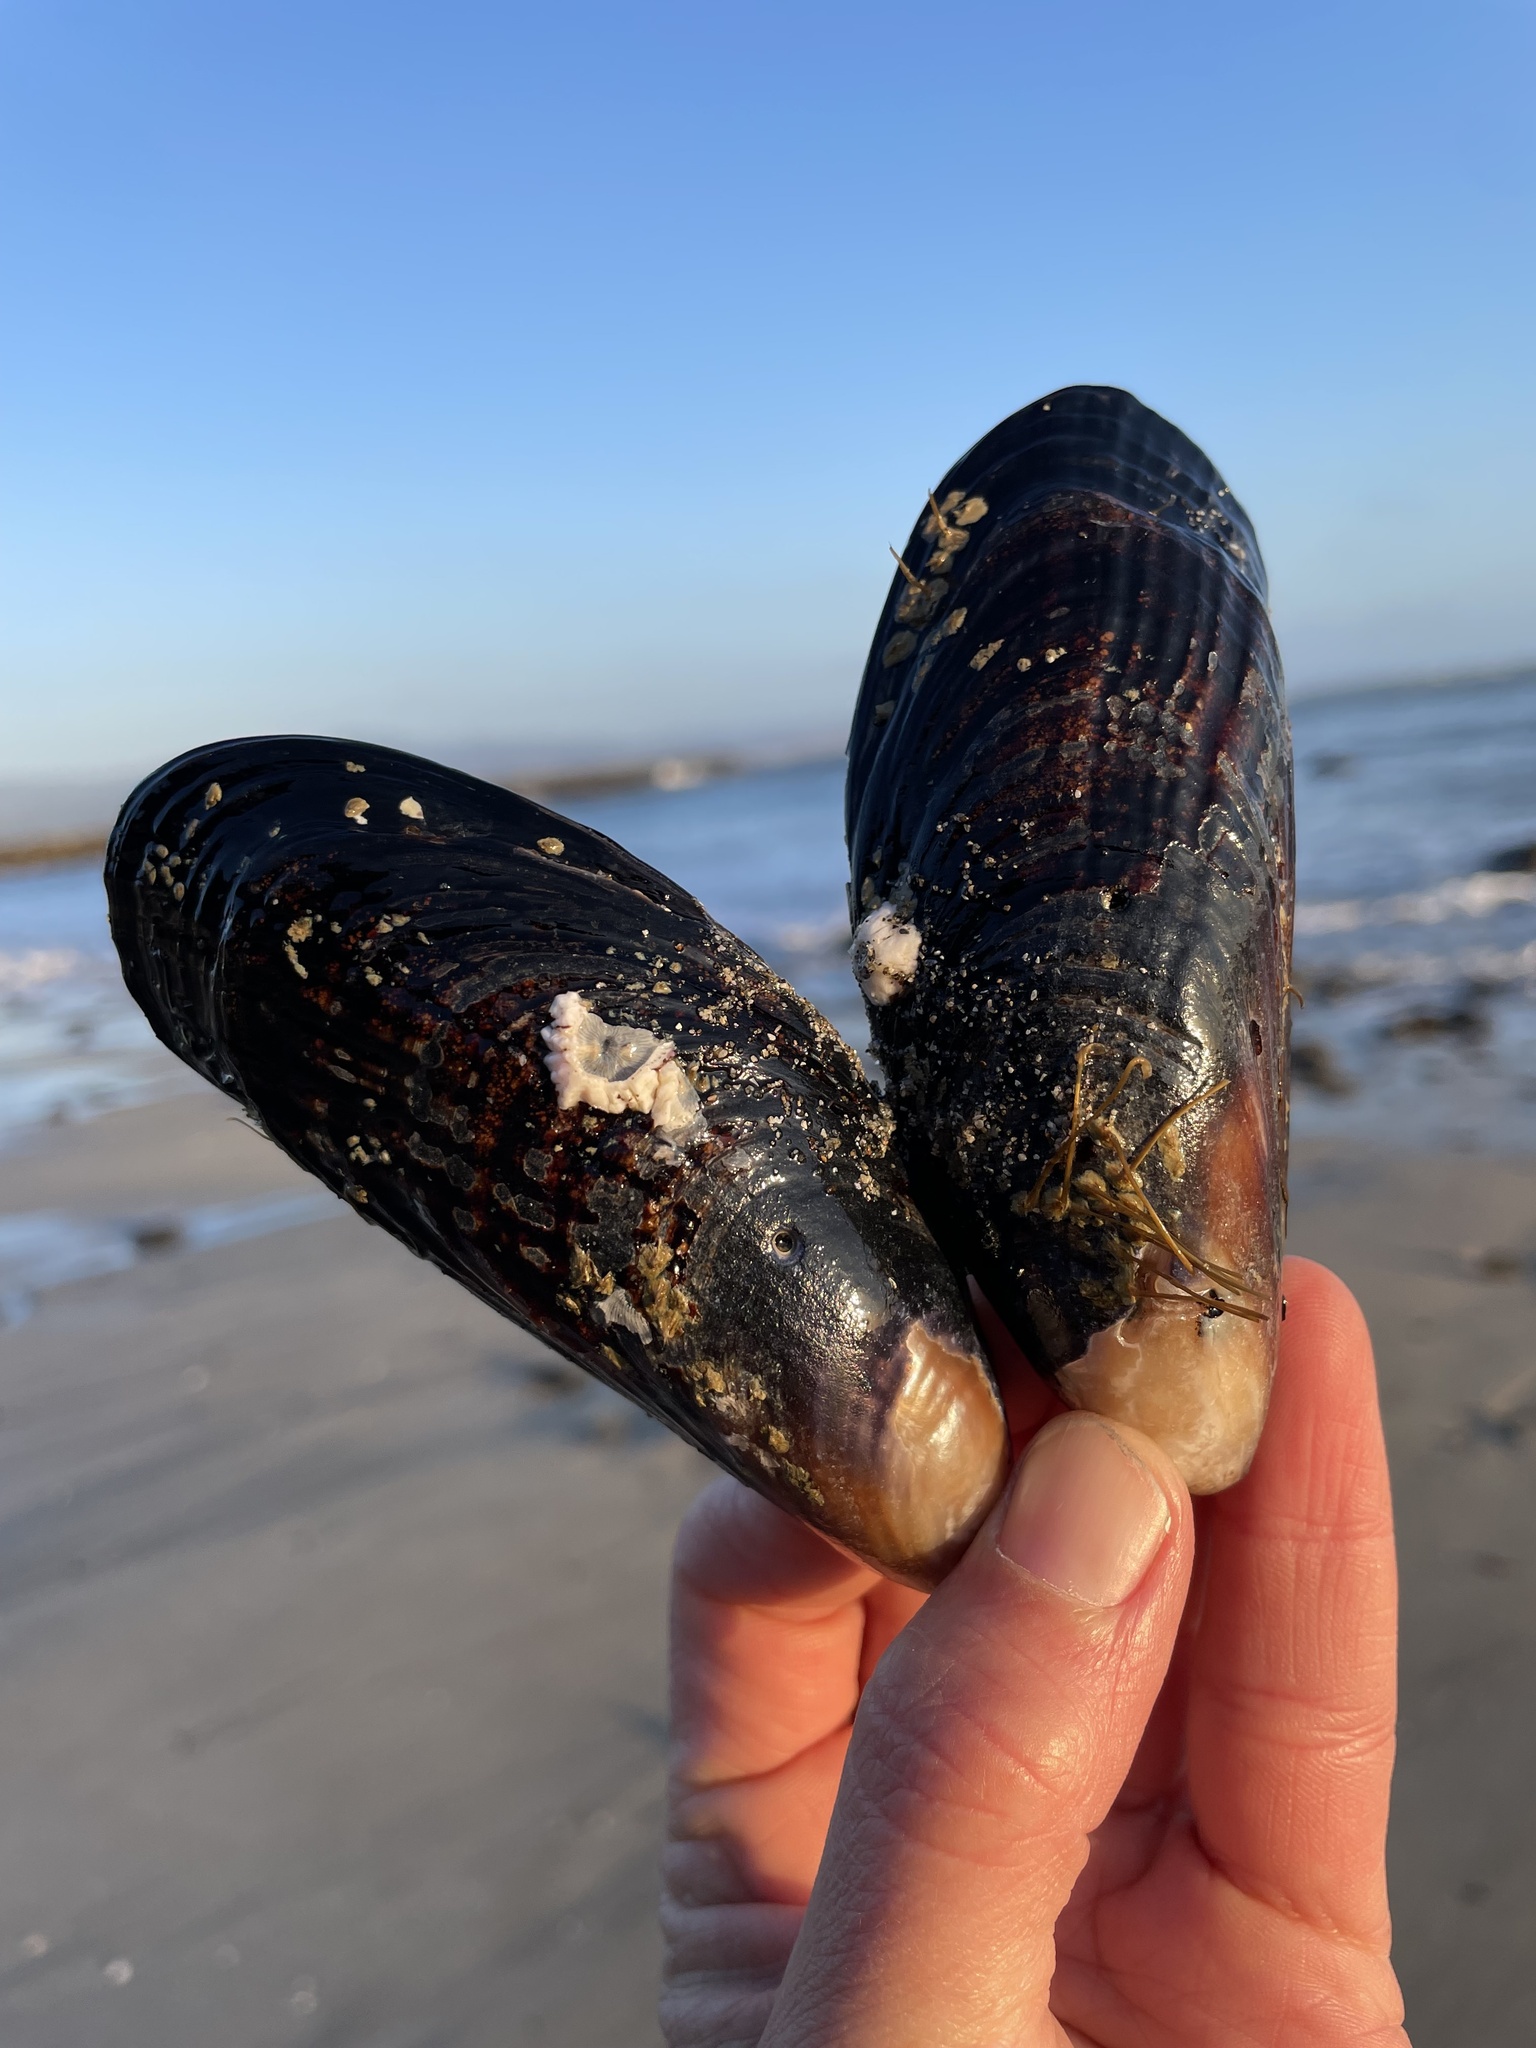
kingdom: Animalia
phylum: Mollusca
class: Bivalvia
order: Mytilida
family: Mytilidae
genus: Mytilus
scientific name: Mytilus californianus
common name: California mussel
